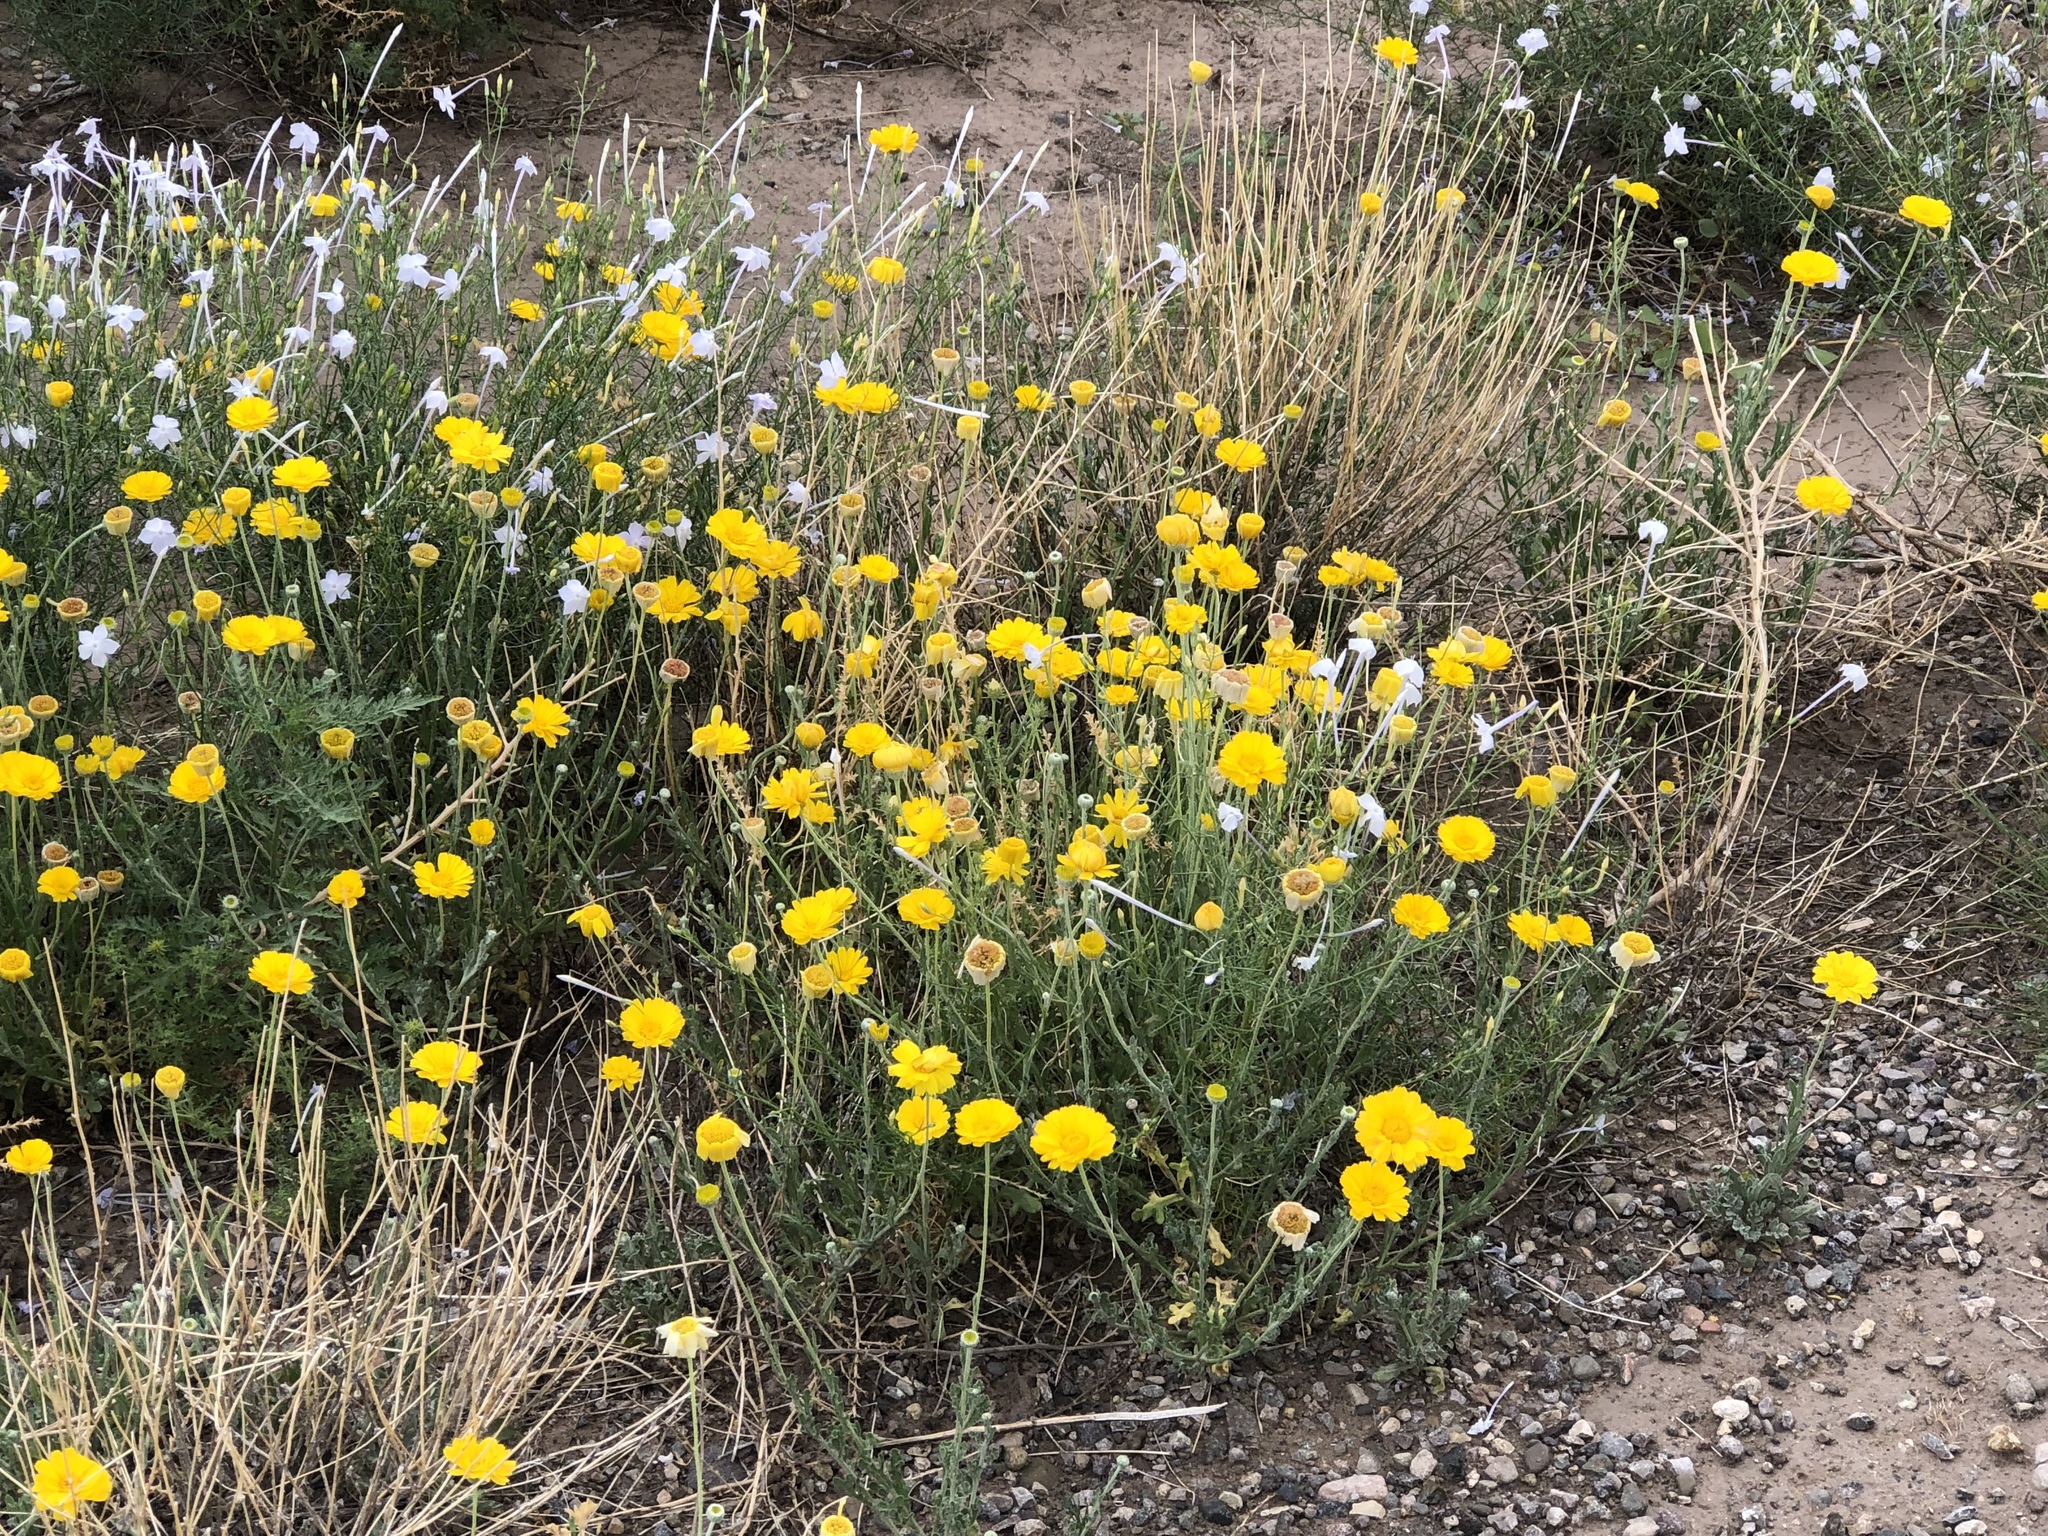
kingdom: Plantae
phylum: Tracheophyta
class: Magnoliopsida
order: Asterales
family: Asteraceae
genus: Baileya
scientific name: Baileya multiradiata
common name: Desert-marigold
